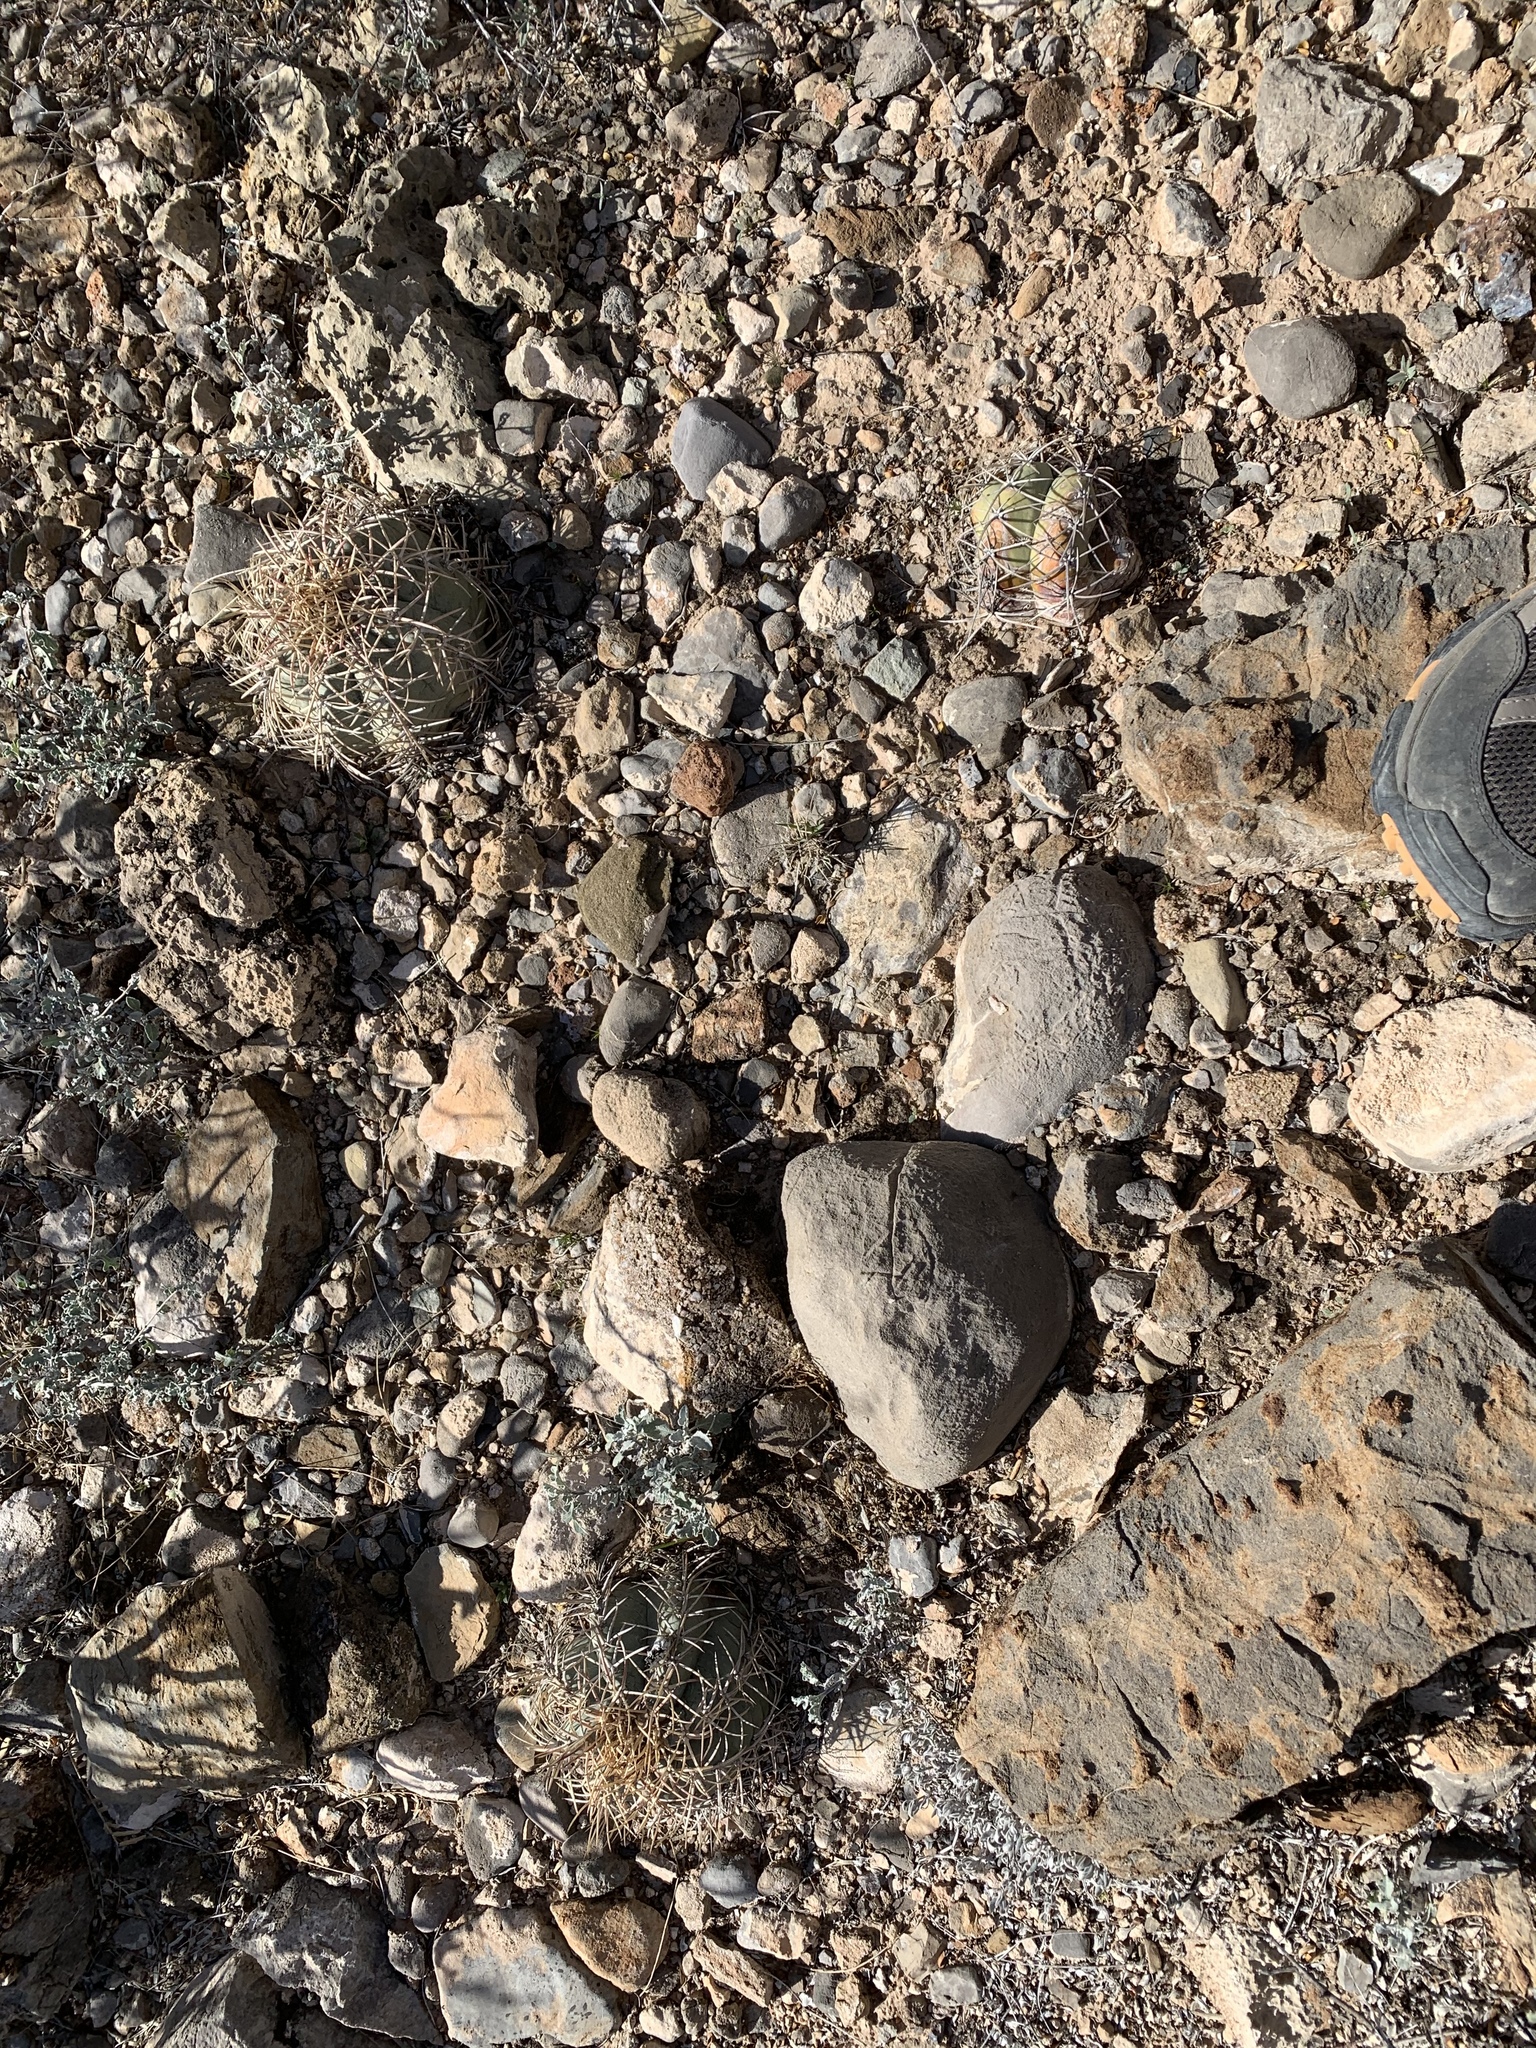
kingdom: Plantae
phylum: Tracheophyta
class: Magnoliopsida
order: Caryophyllales
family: Cactaceae
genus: Echinocactus
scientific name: Echinocactus horizonthalonius
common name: Devilshead
